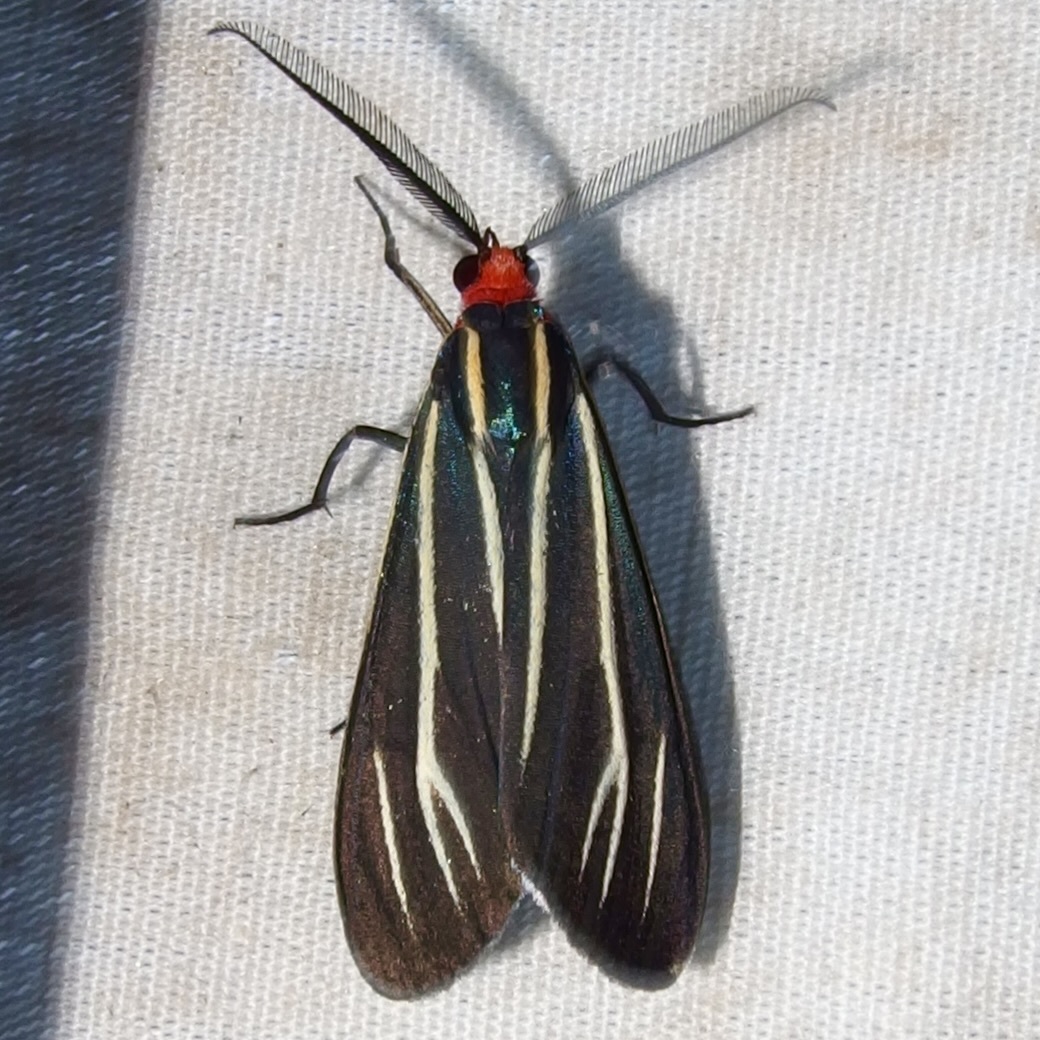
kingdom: Animalia
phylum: Arthropoda
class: Insecta
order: Lepidoptera
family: Erebidae
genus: Ctenucha
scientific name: Ctenucha venosa
